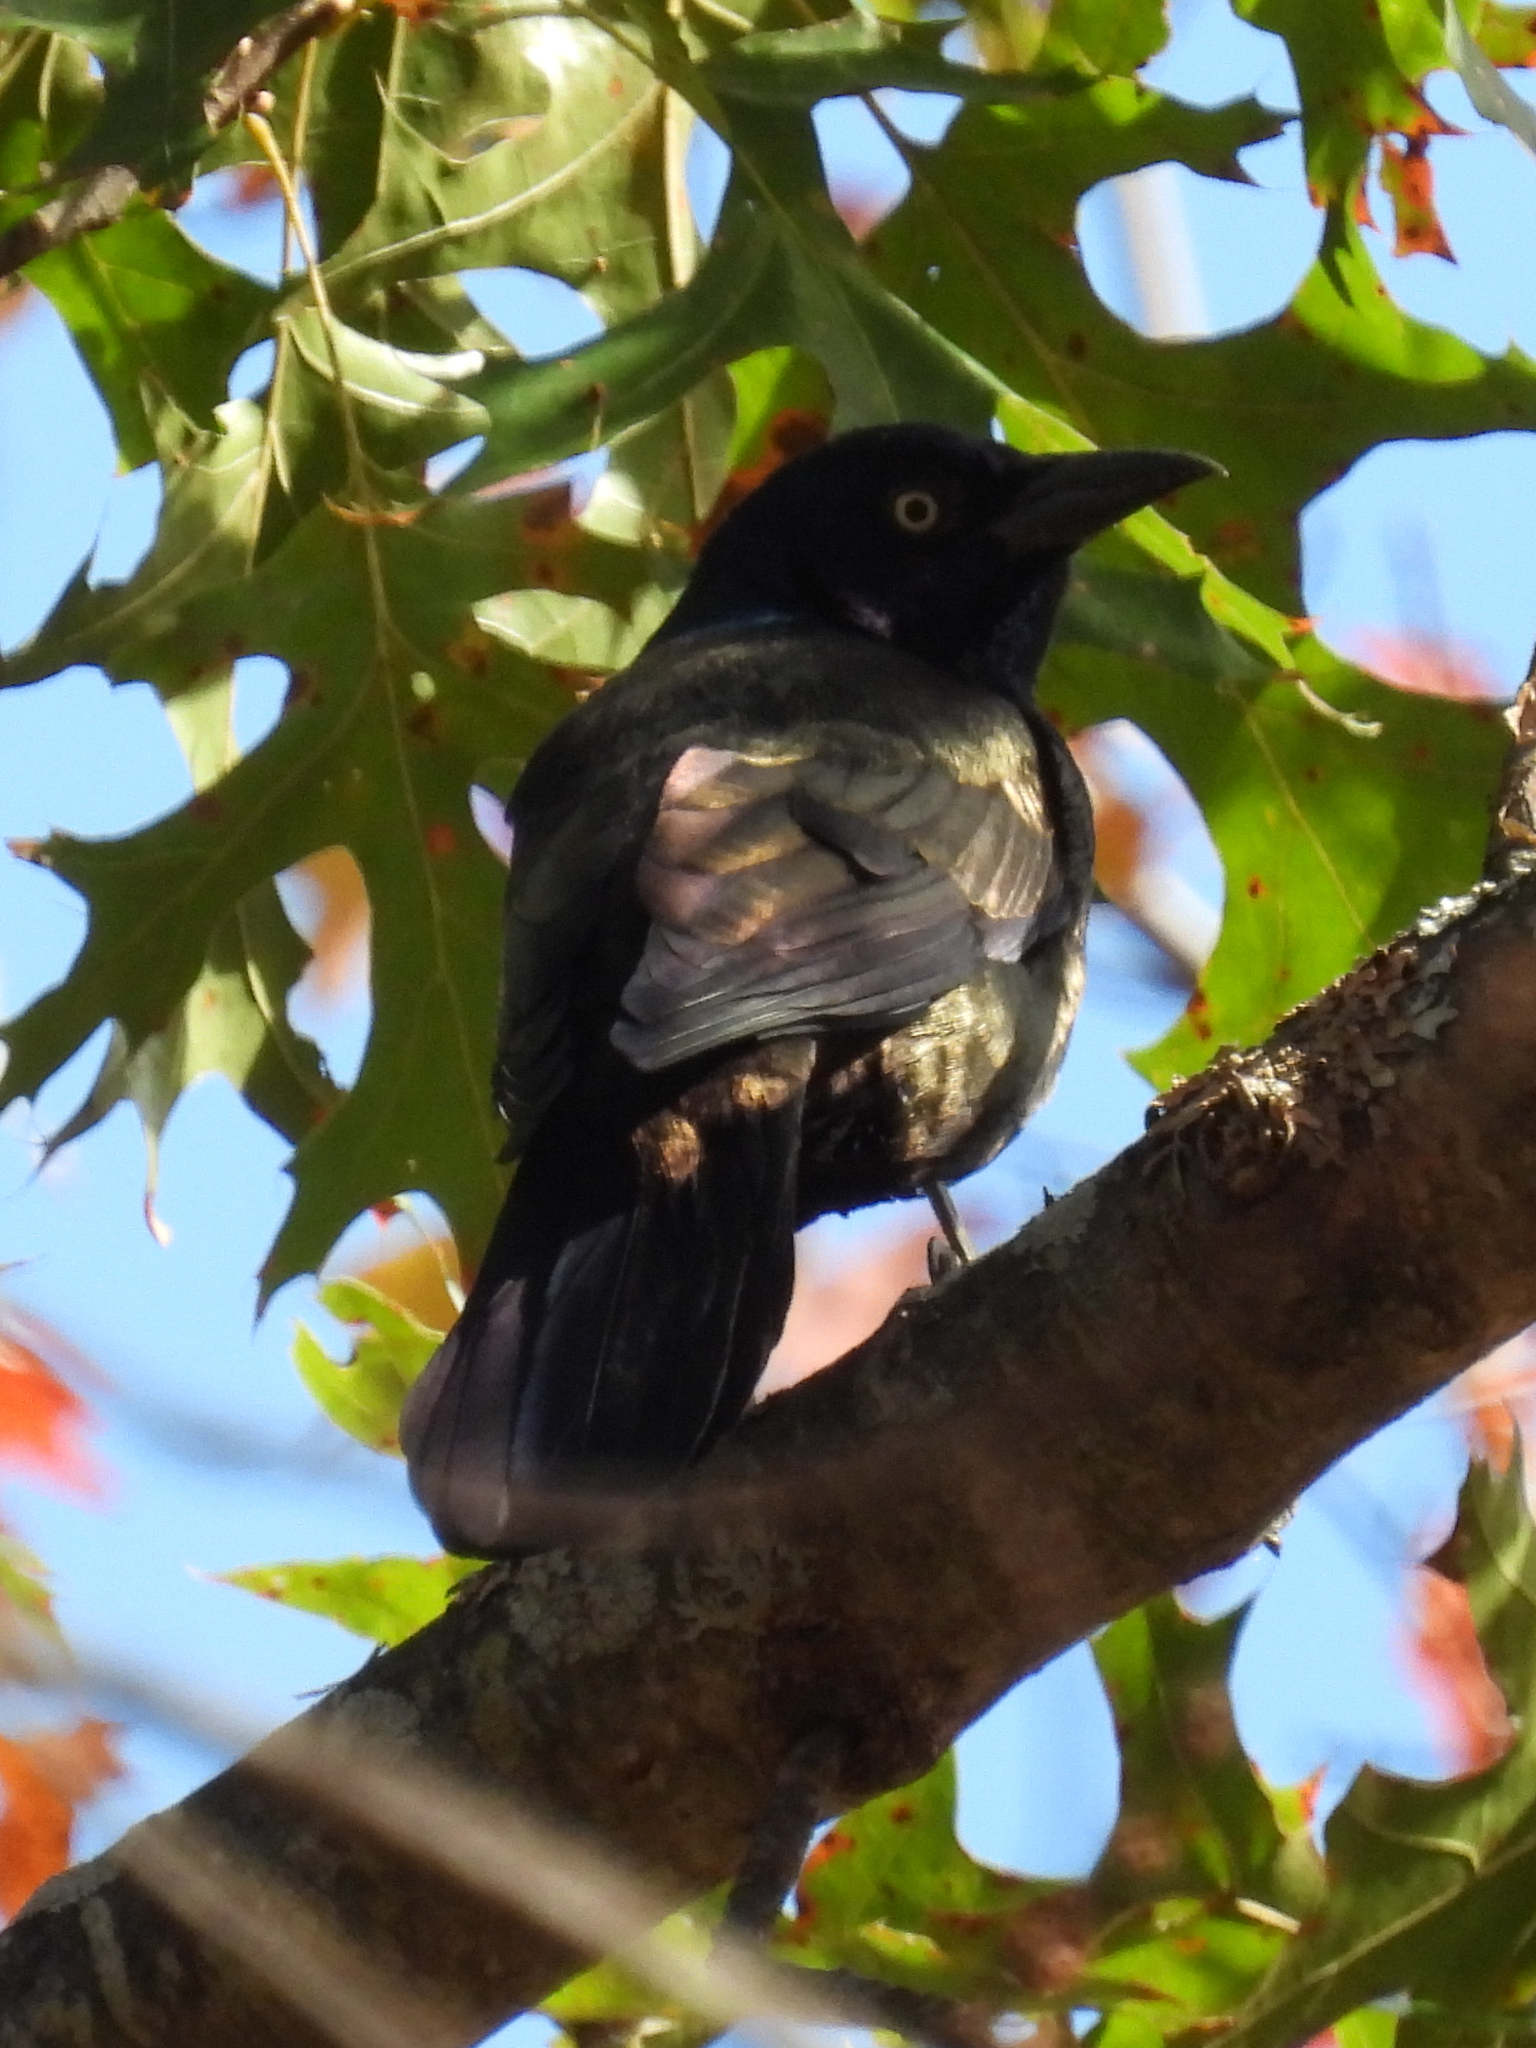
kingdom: Animalia
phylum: Chordata
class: Aves
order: Passeriformes
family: Icteridae
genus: Quiscalus
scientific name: Quiscalus quiscula
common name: Common grackle
